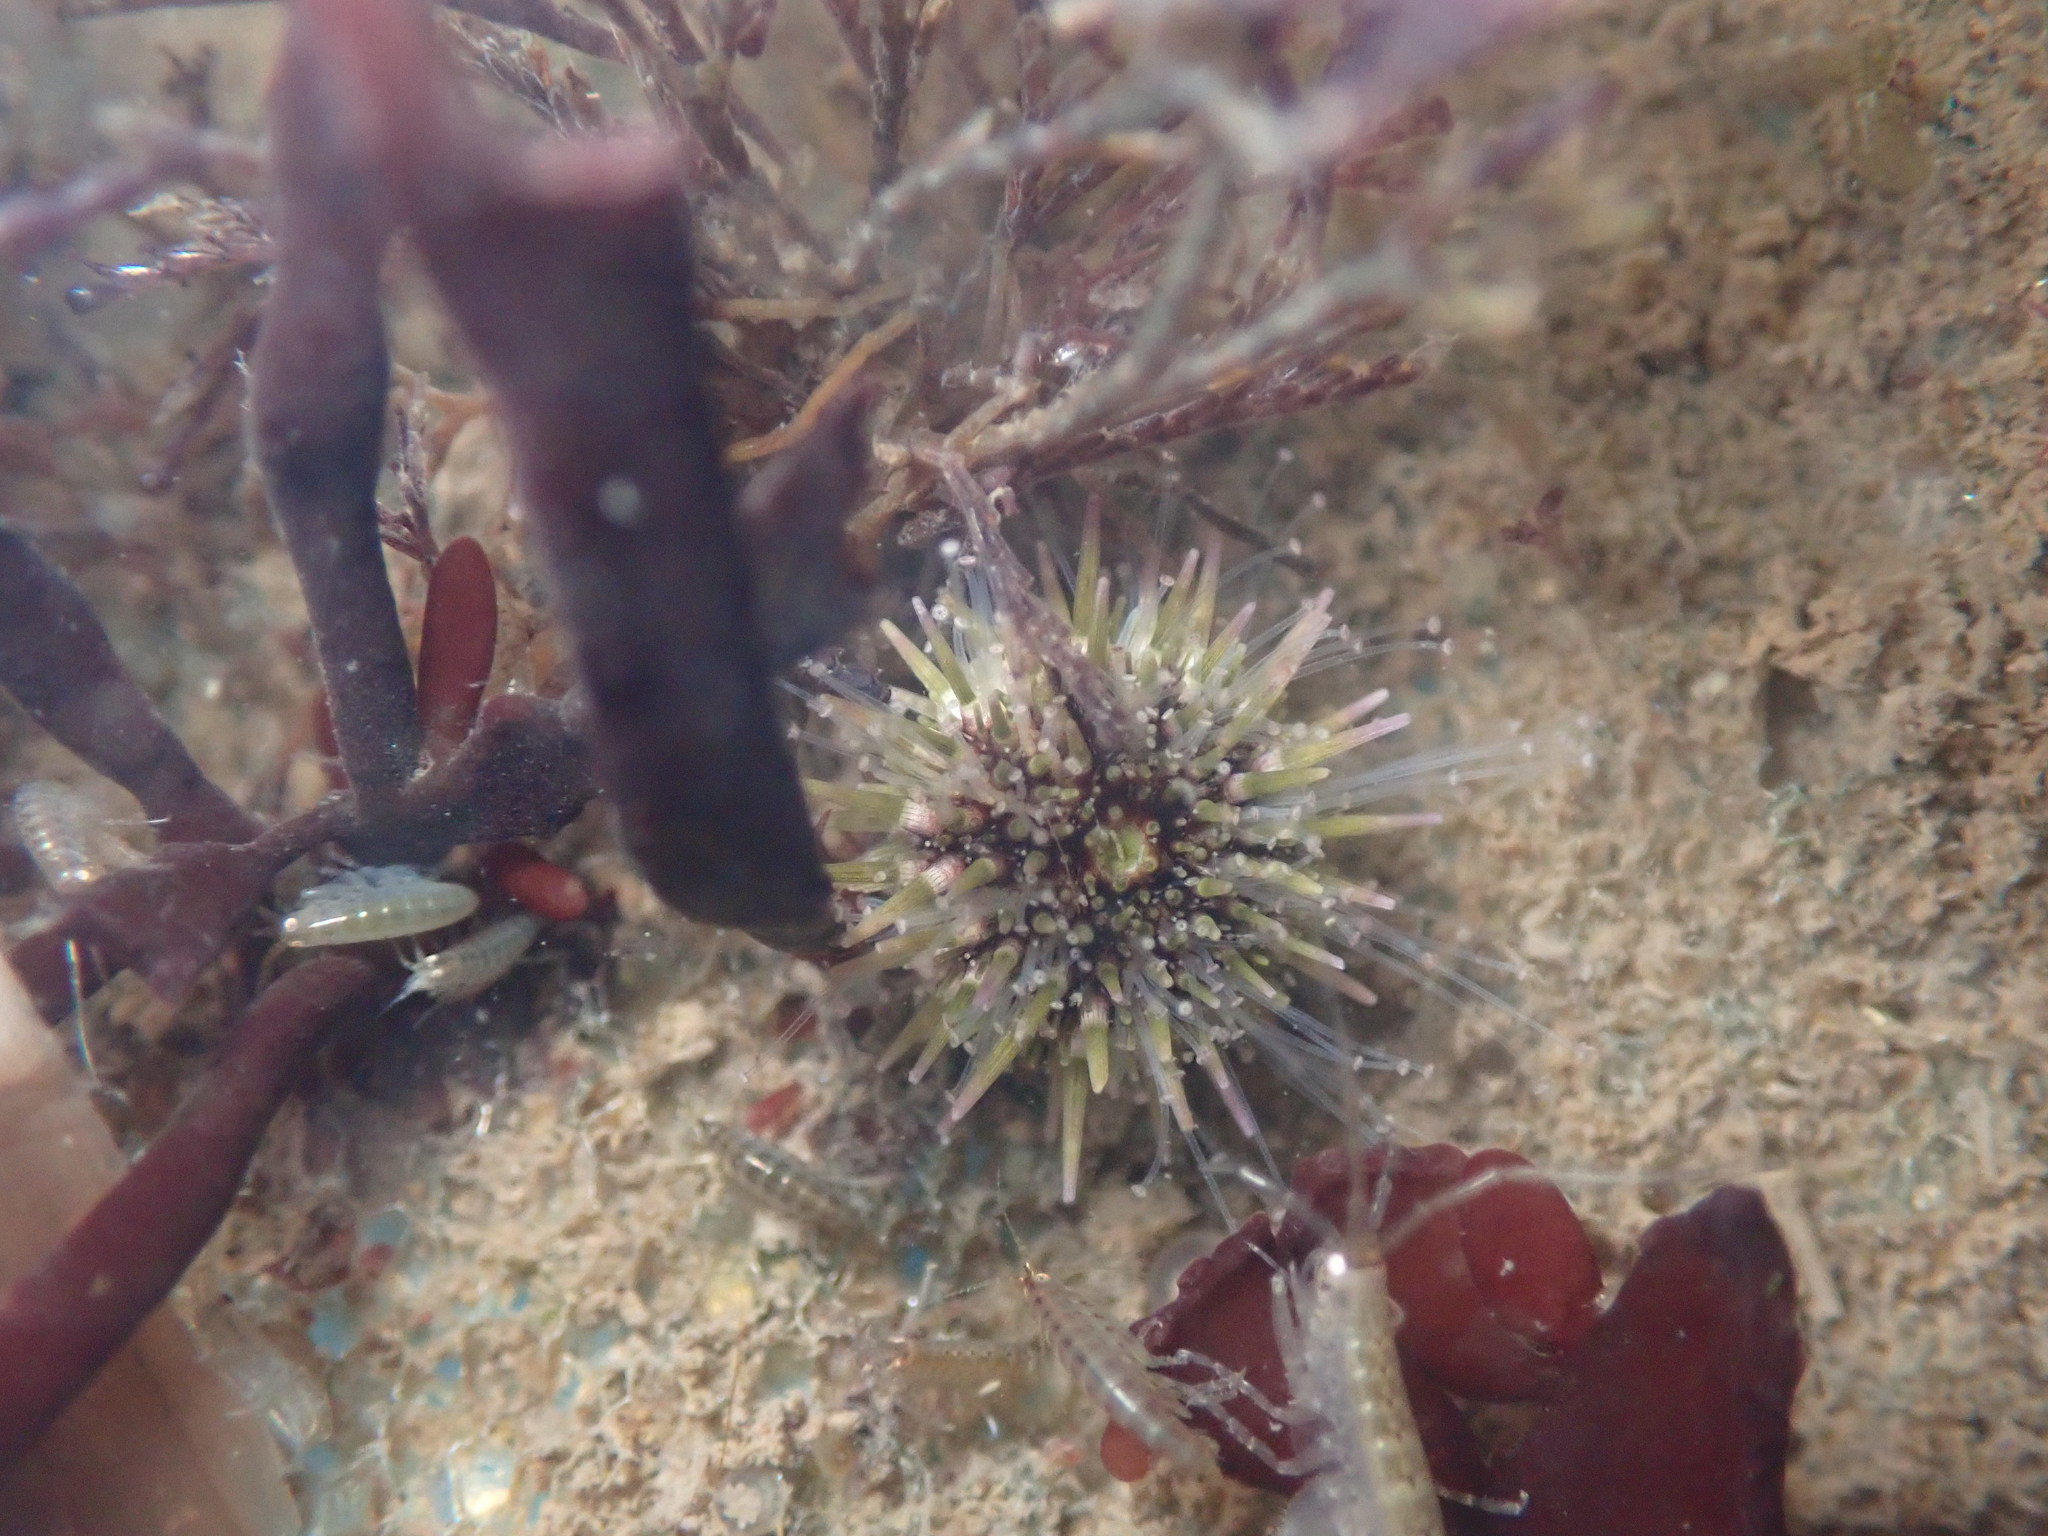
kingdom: Animalia
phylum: Echinodermata
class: Echinoidea
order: Camarodonta
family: Strongylocentrotidae
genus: Strongylocentrotus
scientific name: Strongylocentrotus purpuratus
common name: Purple sea urchin
